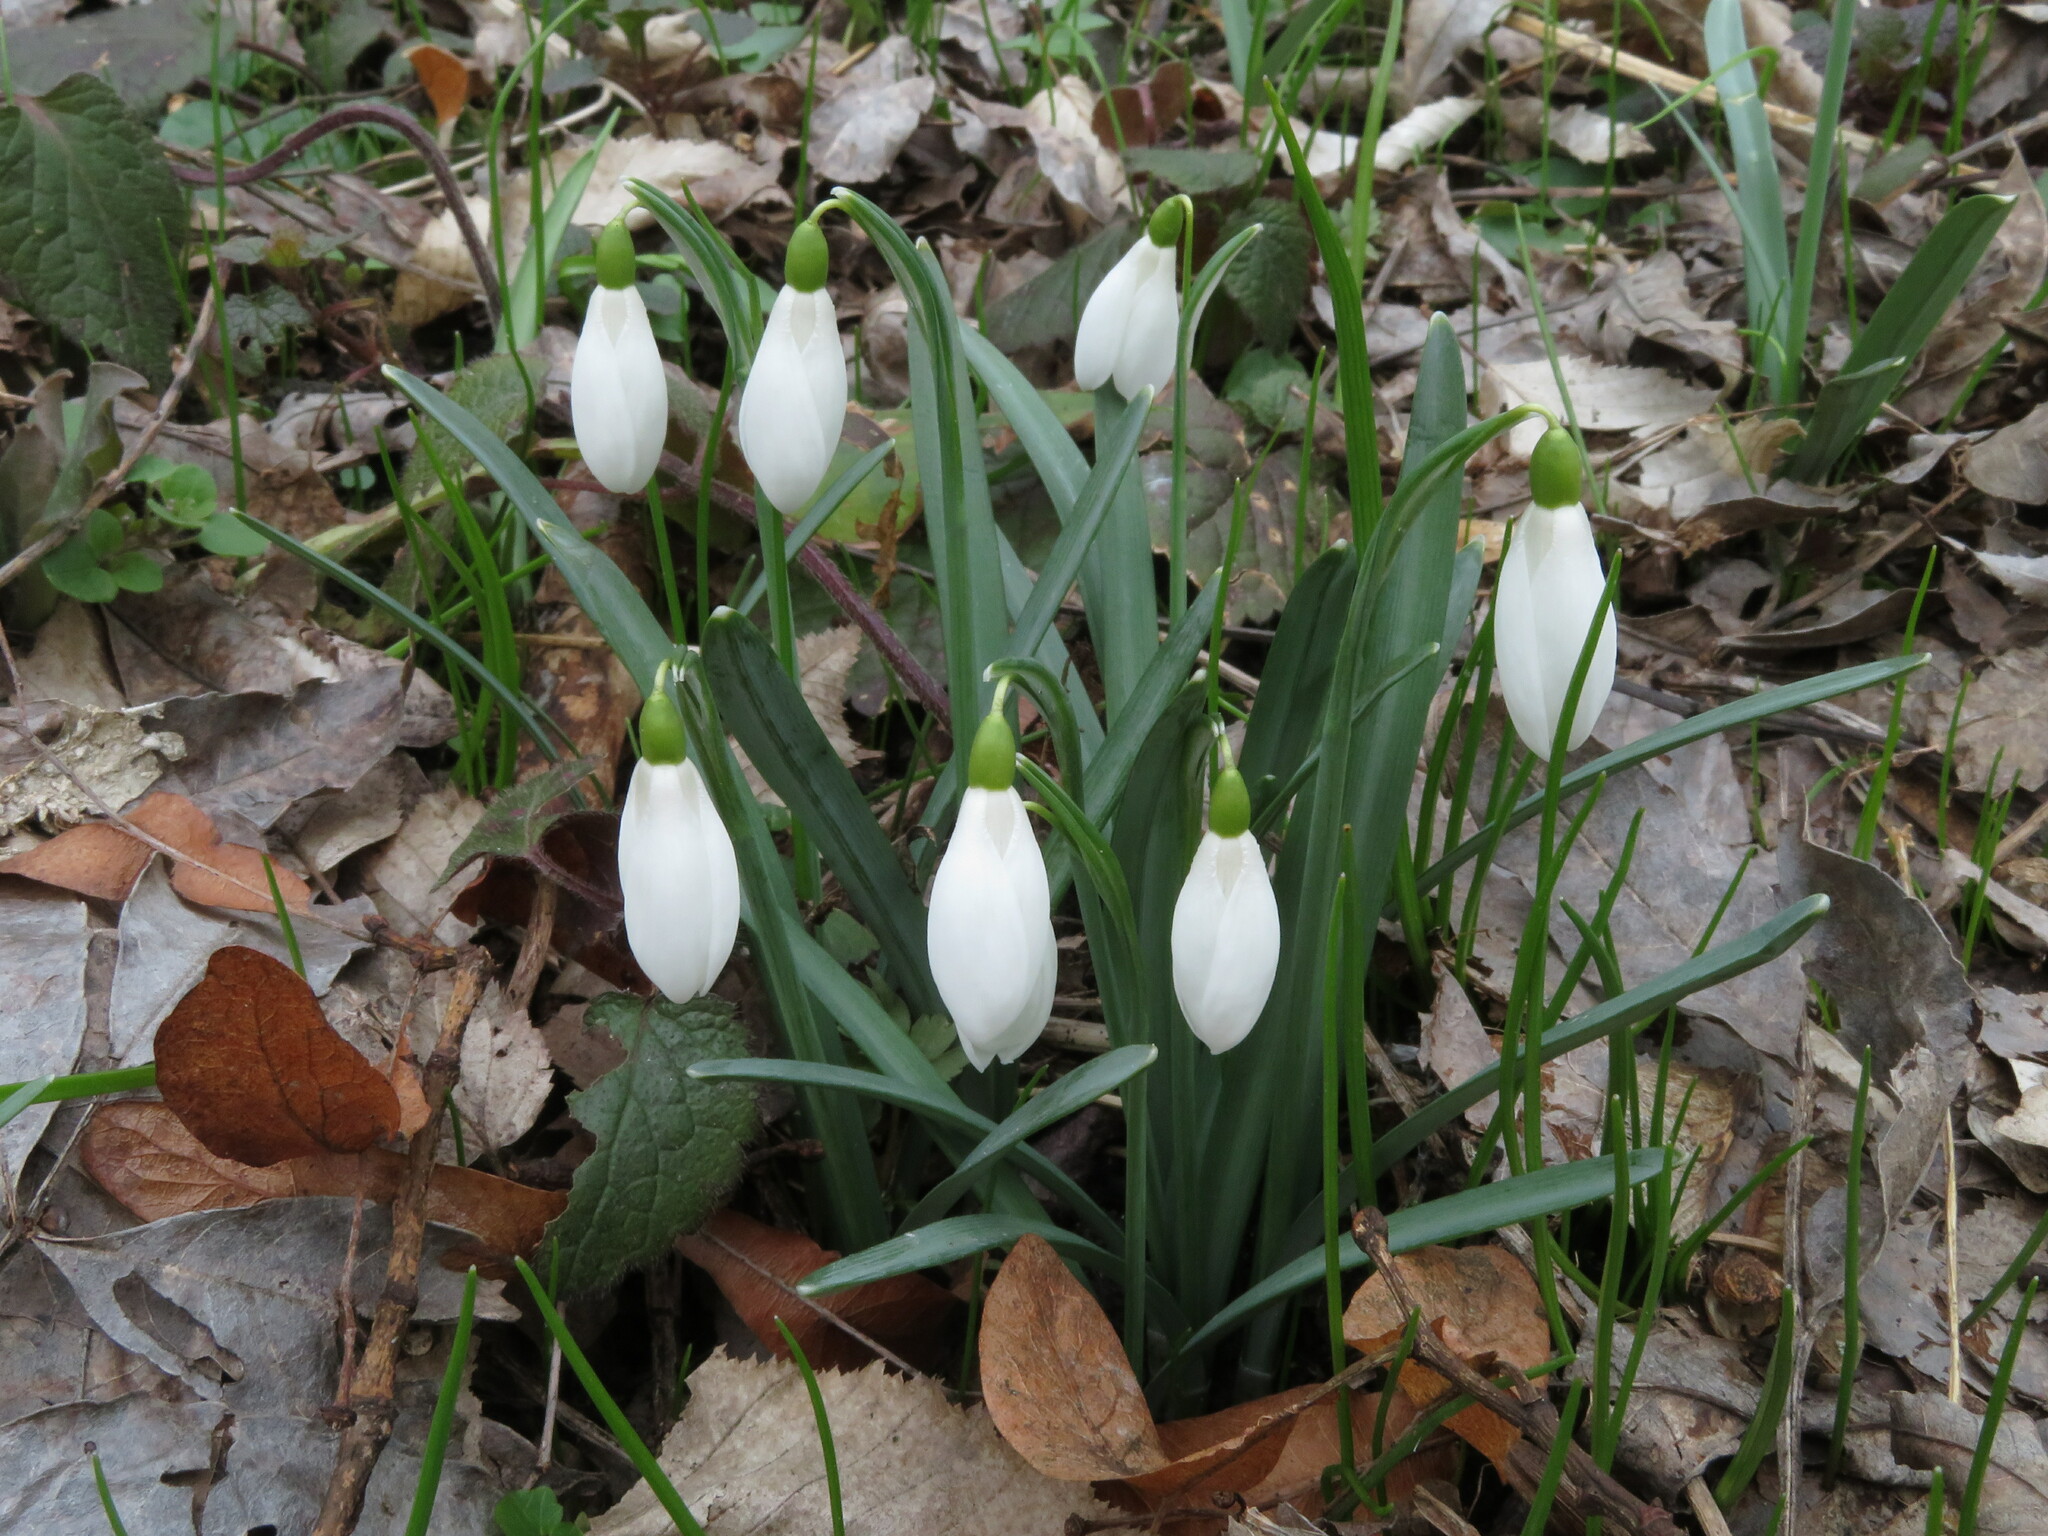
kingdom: Plantae
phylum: Tracheophyta
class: Liliopsida
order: Asparagales
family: Amaryllidaceae
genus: Galanthus
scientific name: Galanthus nivalis
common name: Snowdrop
